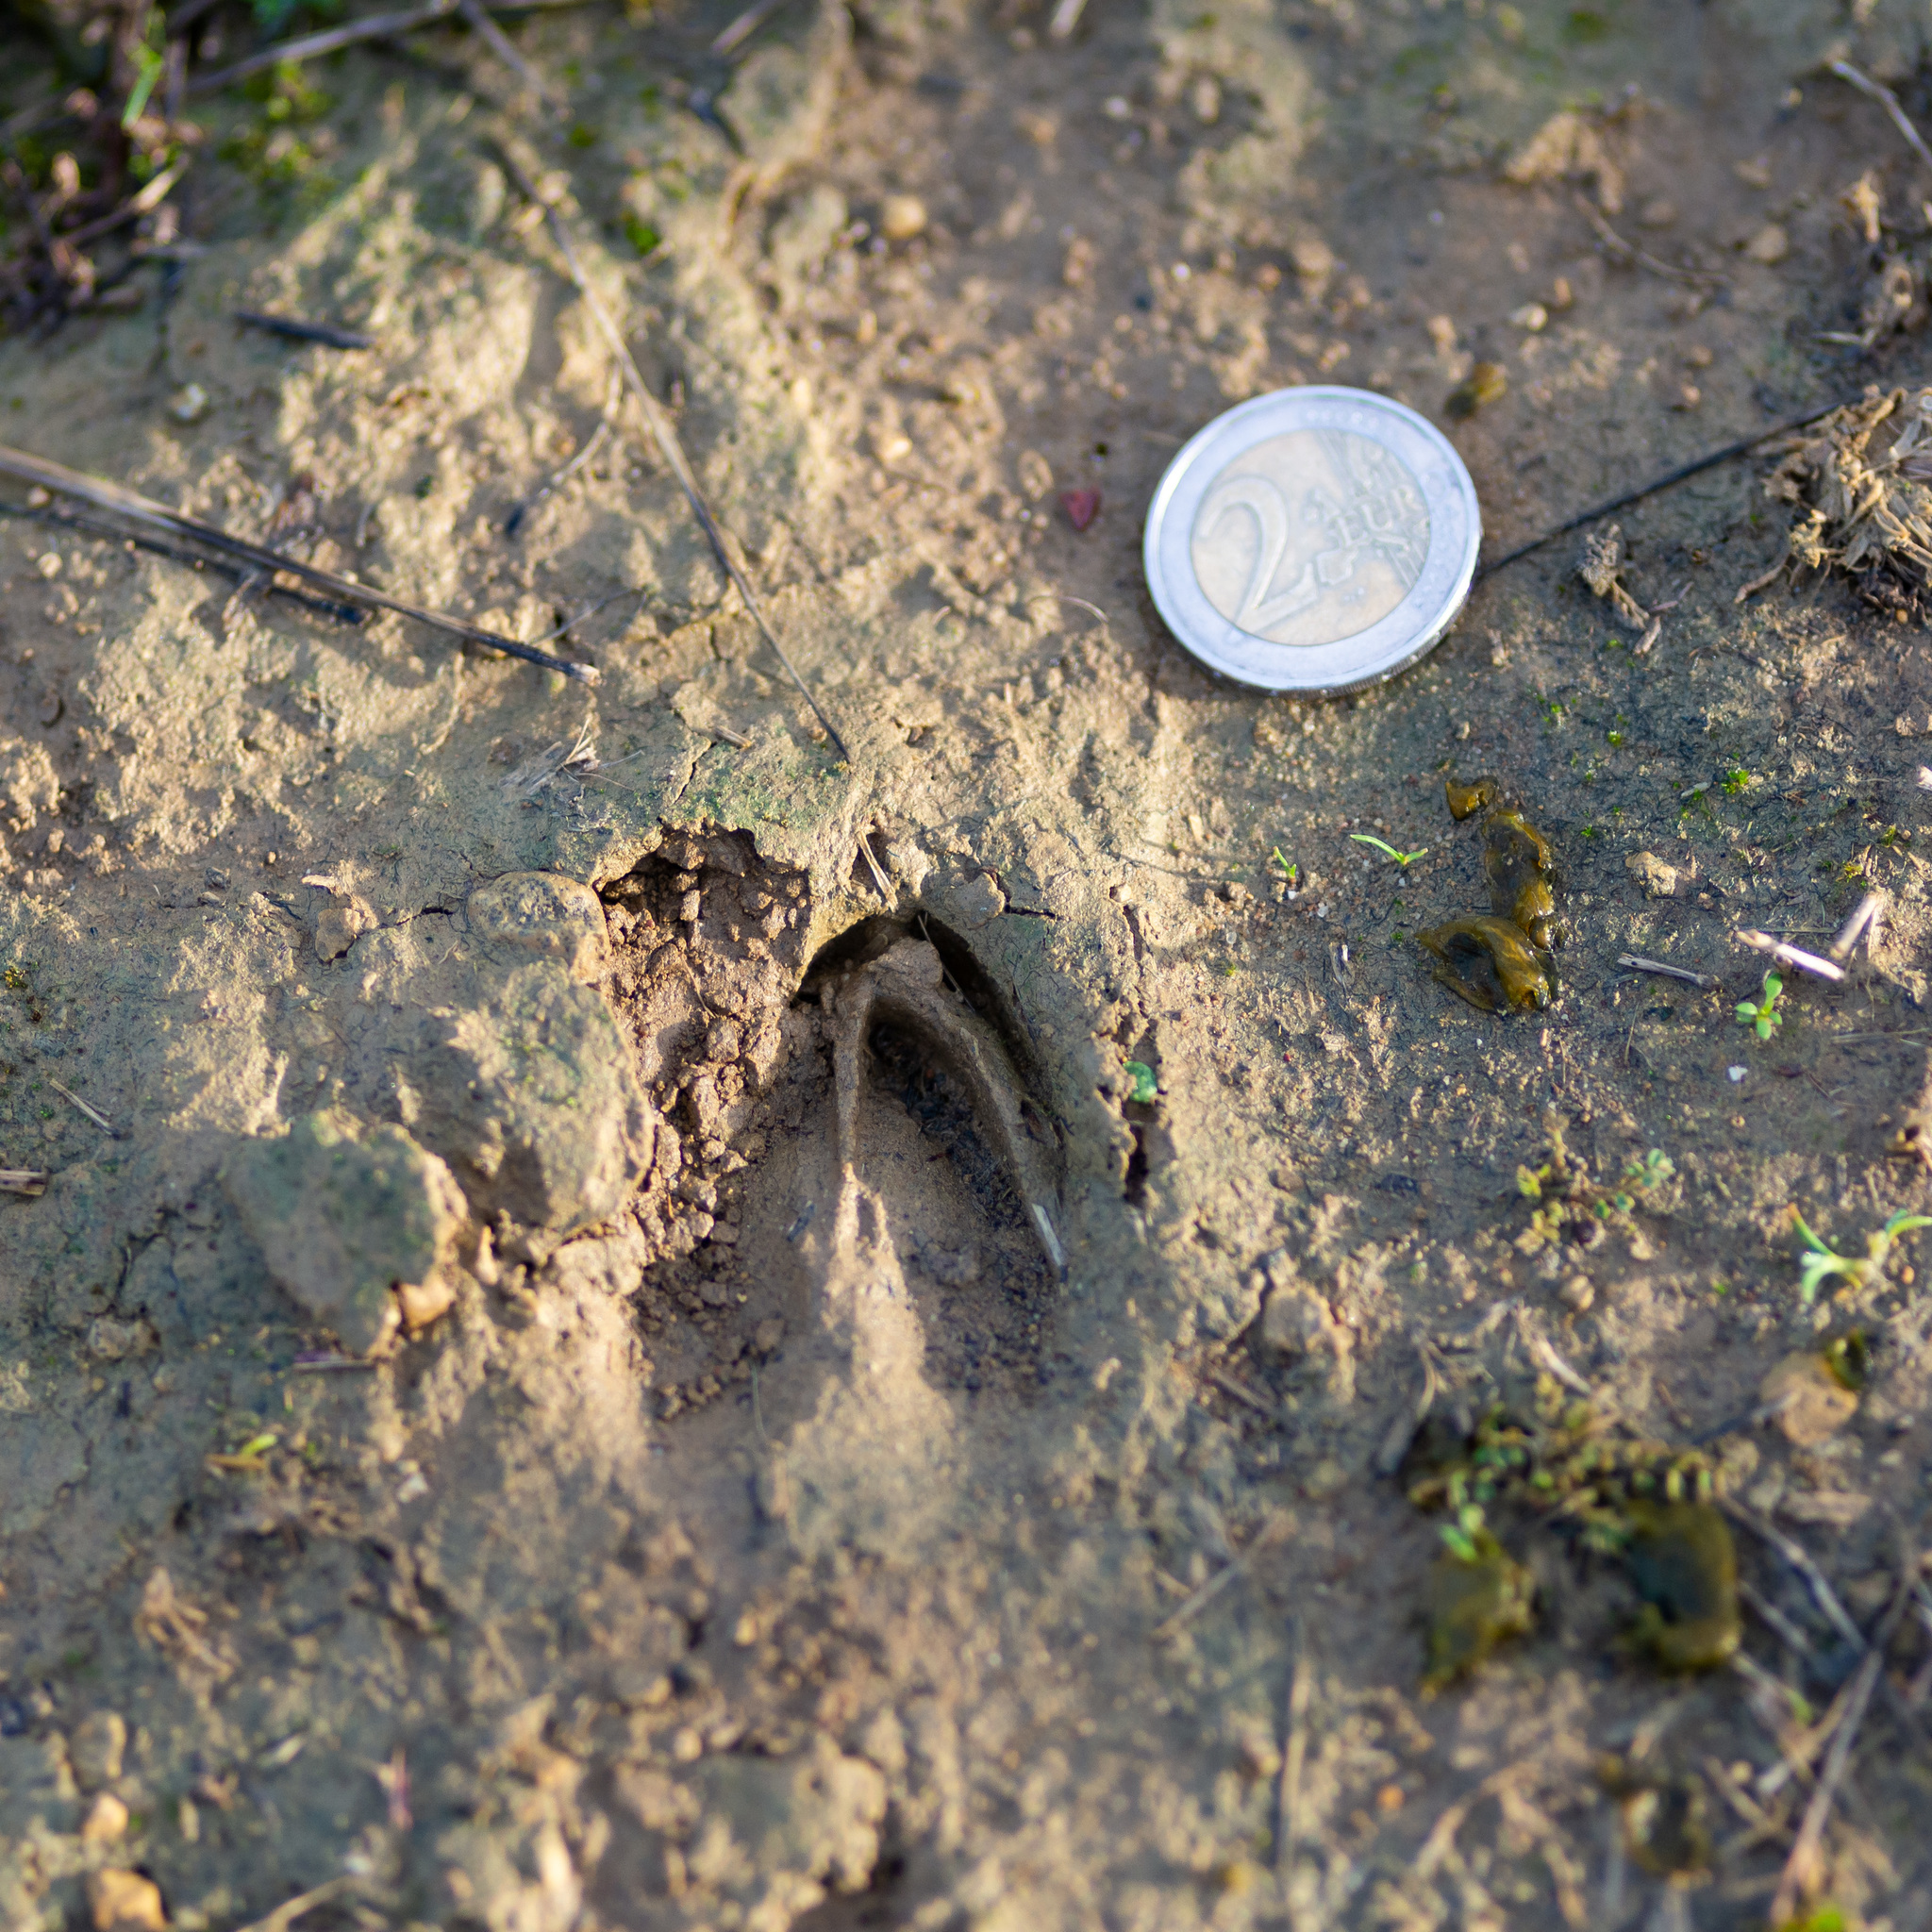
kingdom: Animalia
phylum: Chordata
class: Mammalia
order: Artiodactyla
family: Cervidae
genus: Capreolus
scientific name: Capreolus capreolus
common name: Western roe deer
